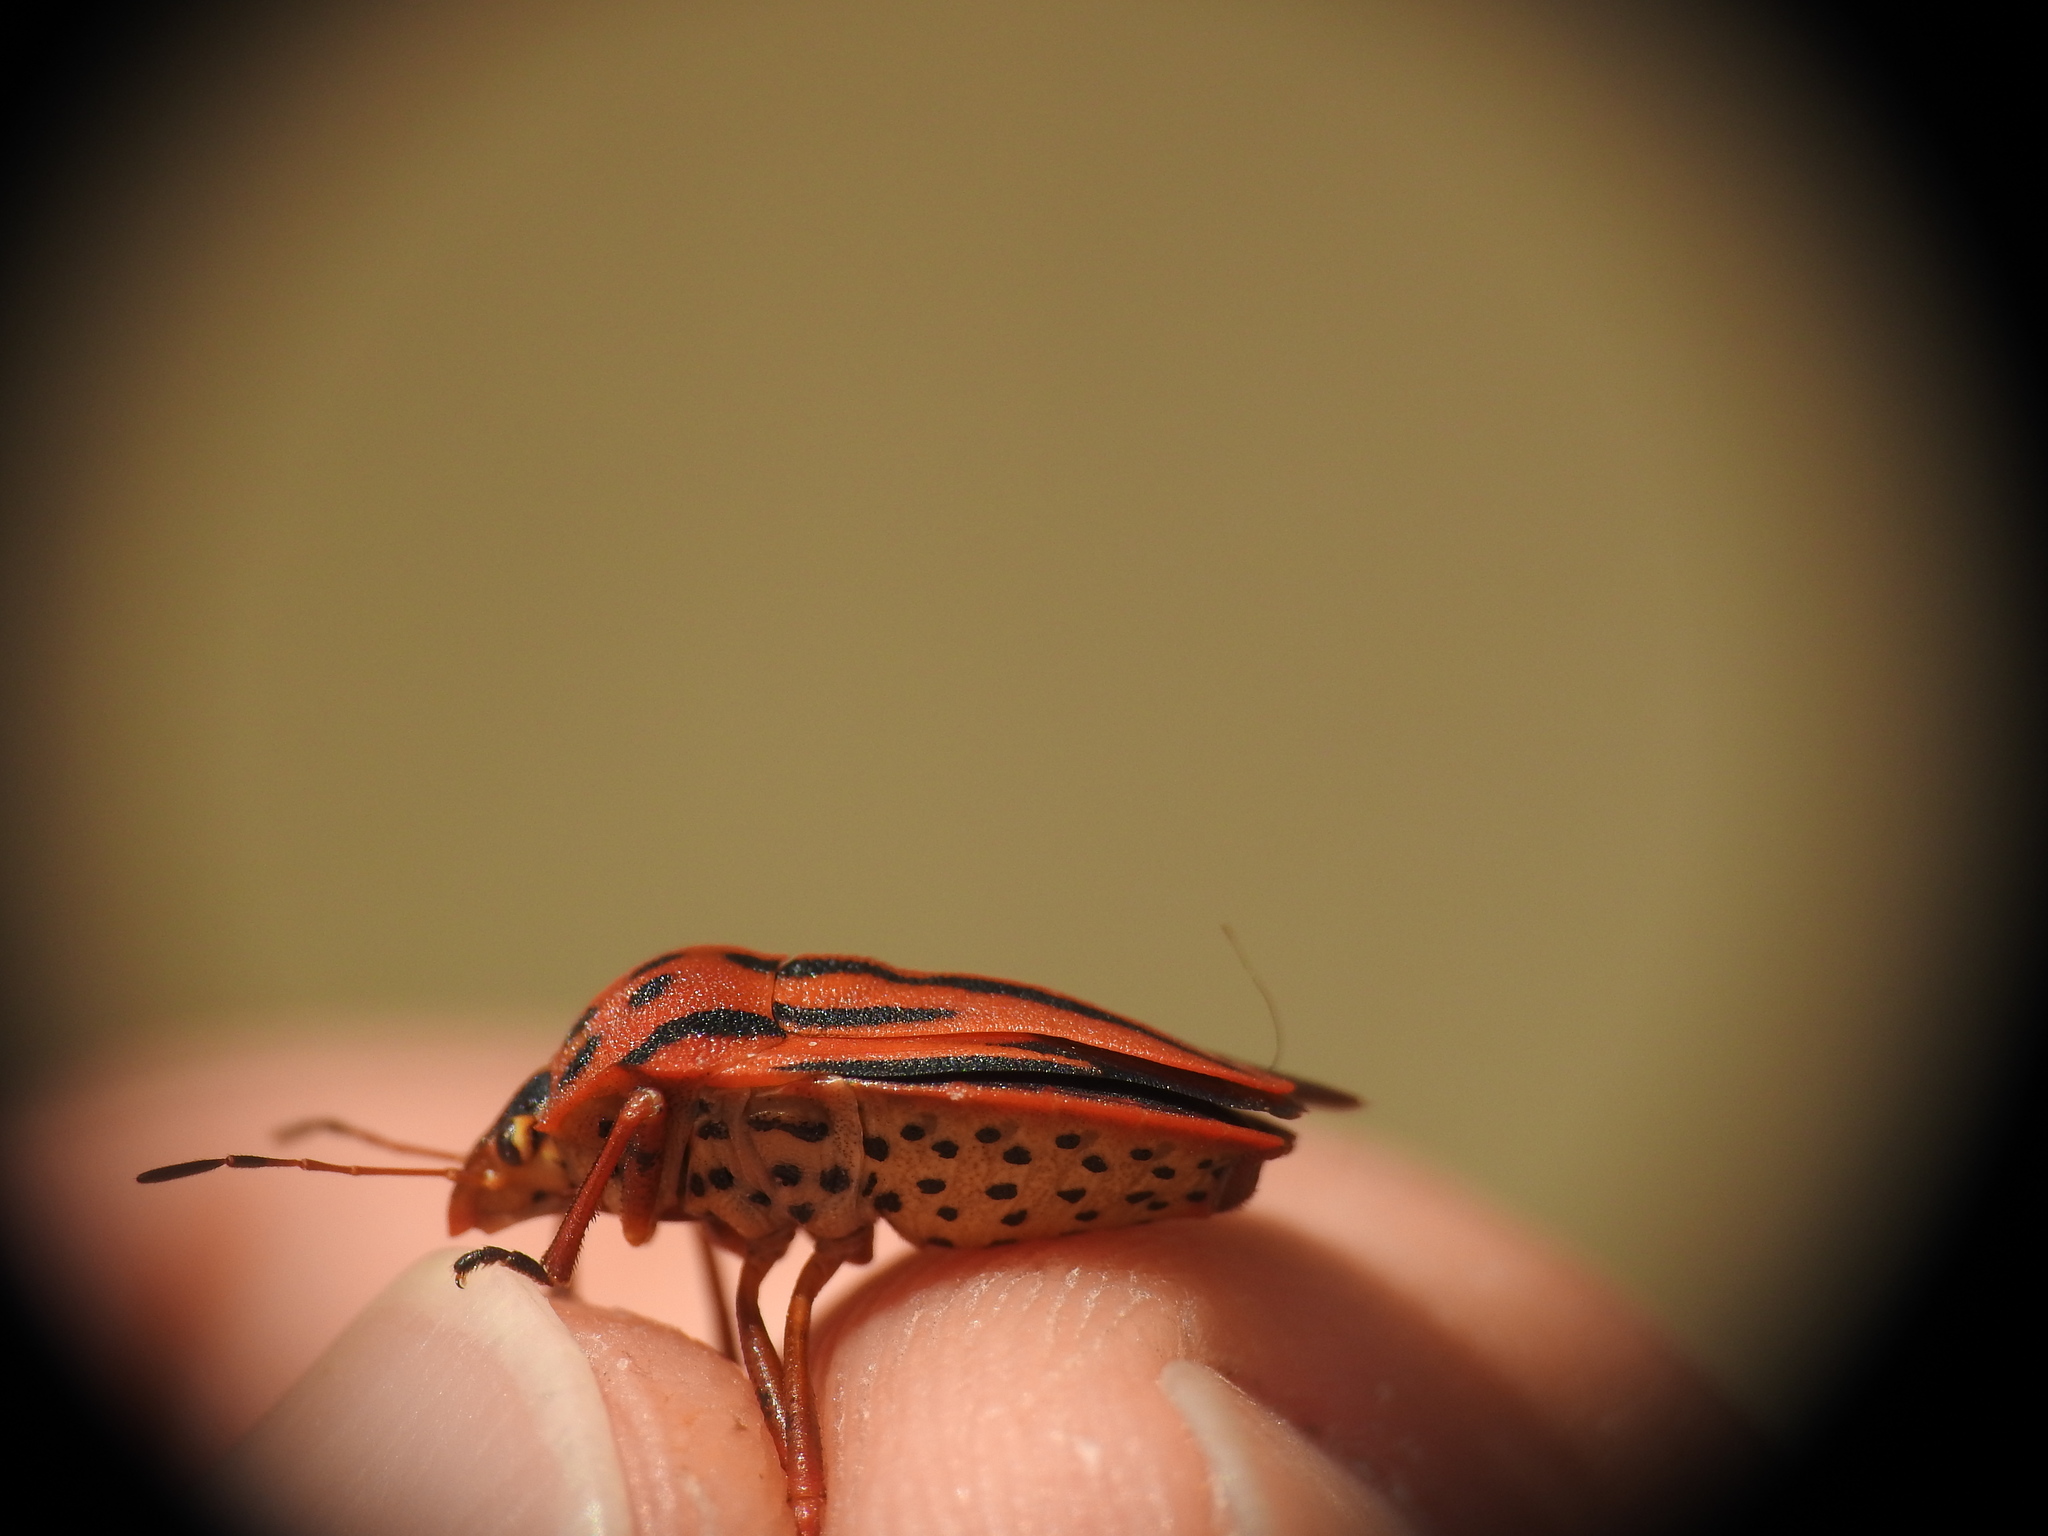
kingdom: Animalia
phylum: Arthropoda
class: Insecta
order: Hemiptera
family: Pentatomidae
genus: Graphosoma
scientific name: Graphosoma semipunctatum
